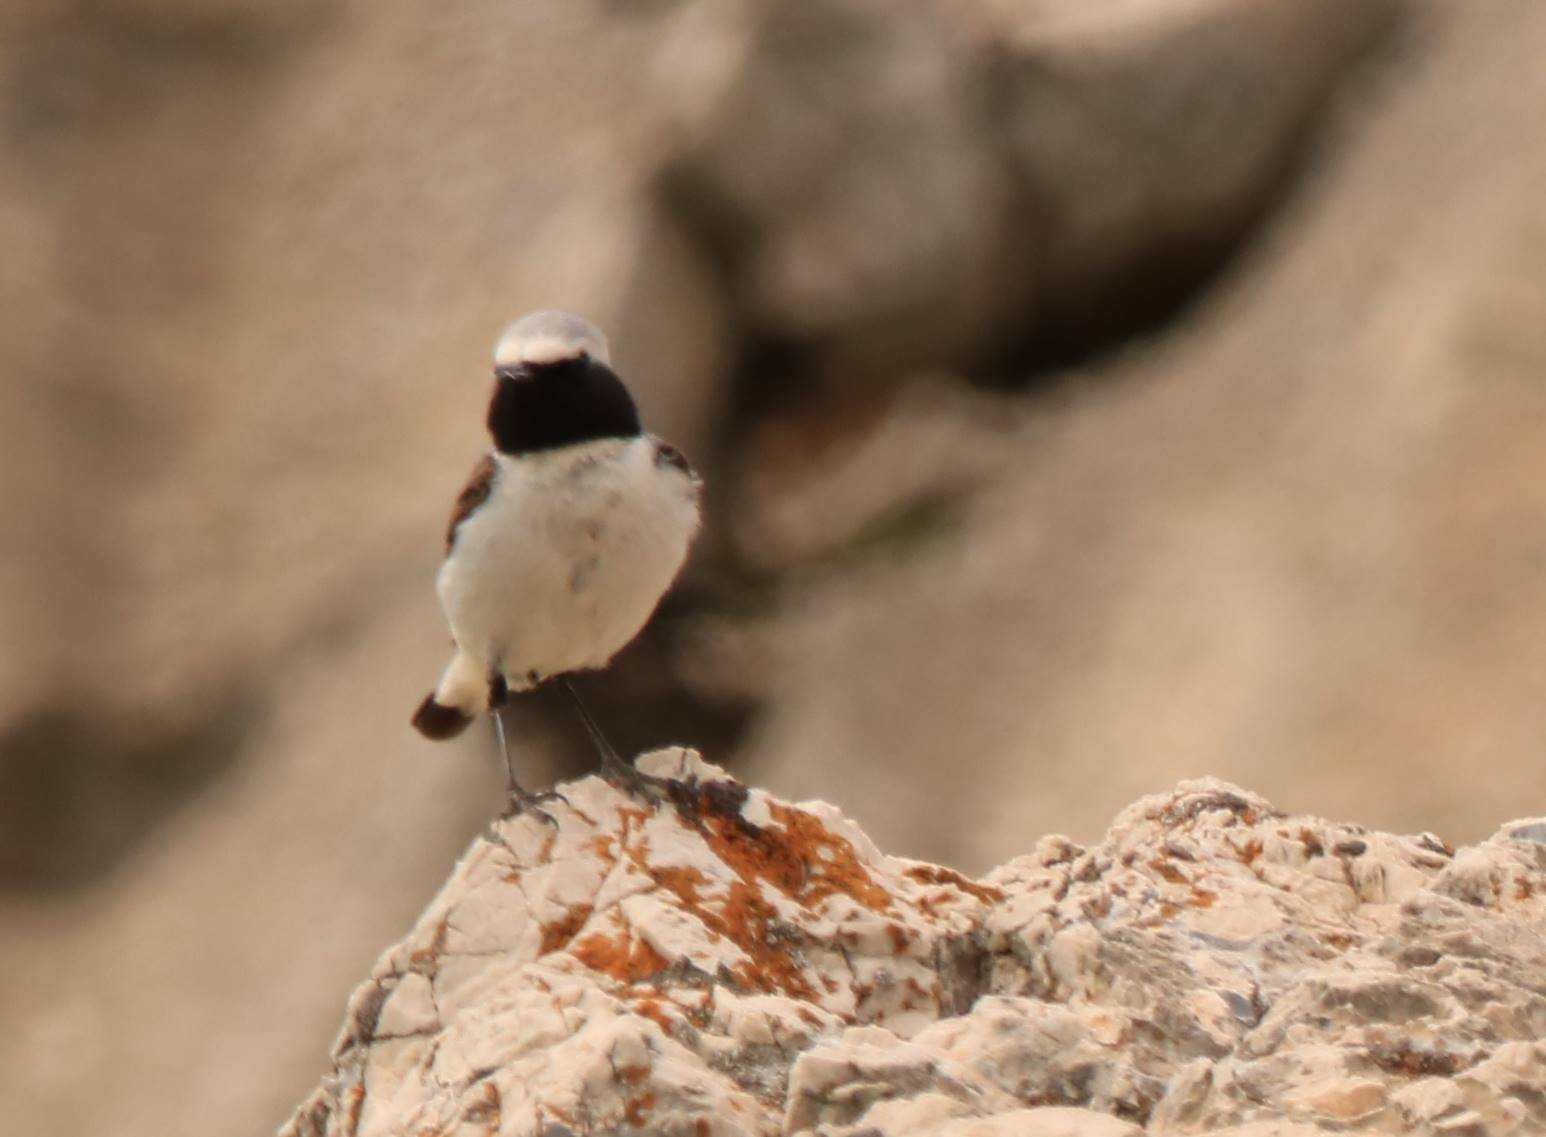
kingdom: Animalia
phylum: Chordata
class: Aves
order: Passeriformes
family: Muscicapidae
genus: Oenanthe
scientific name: Oenanthe oenanthe
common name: Northern wheatear
